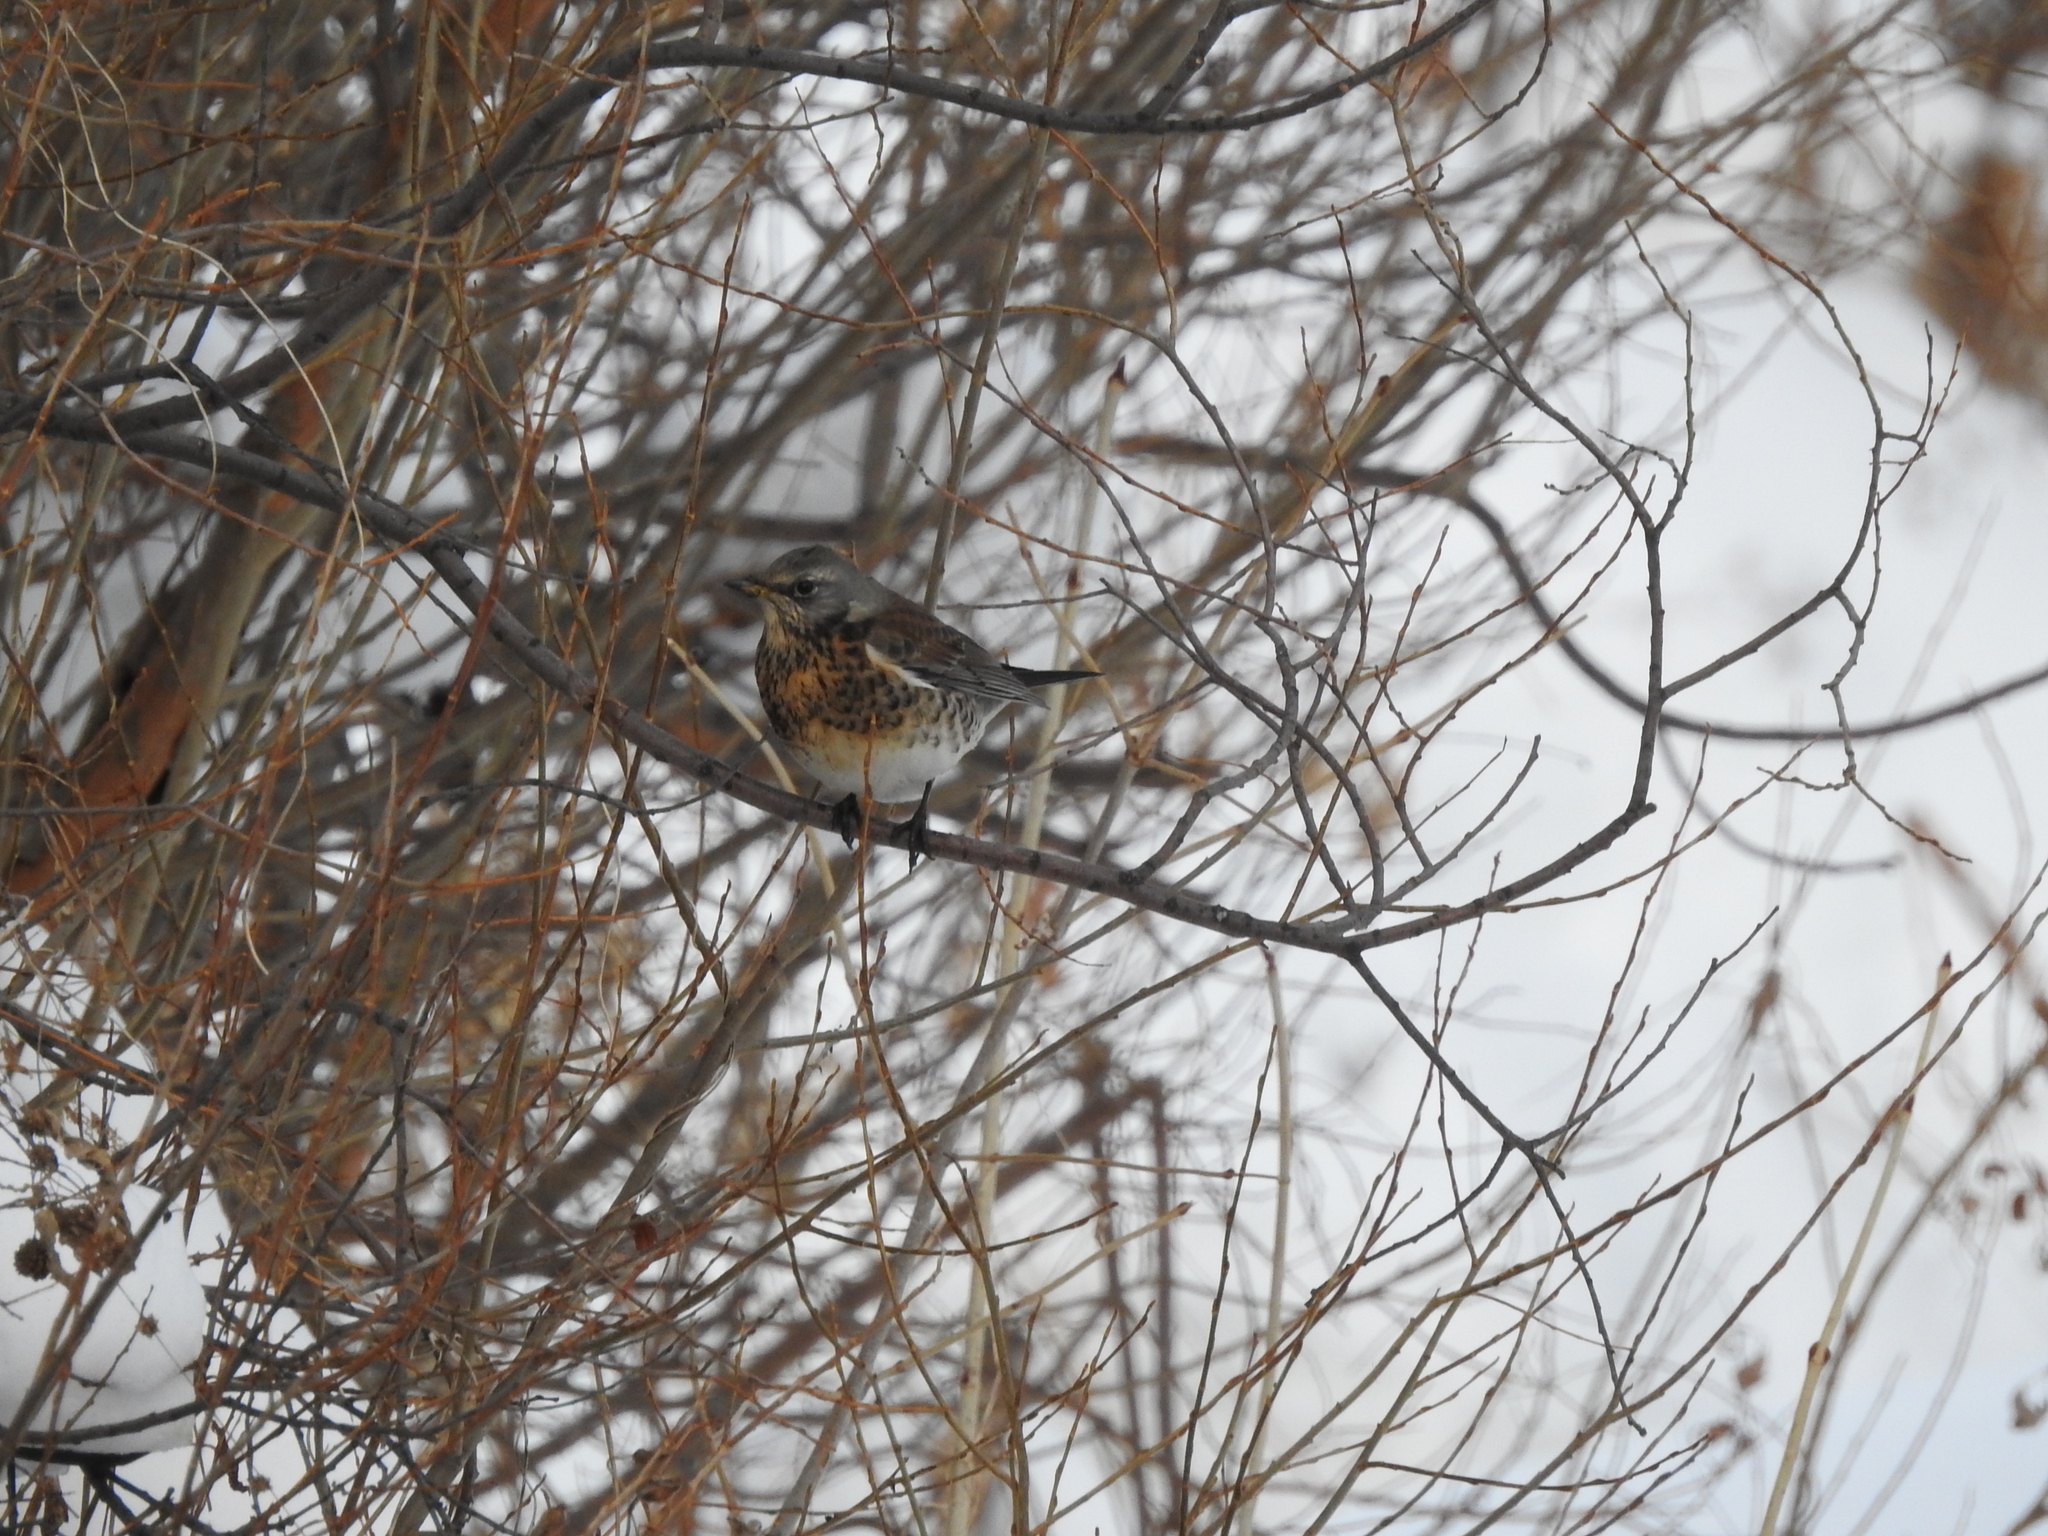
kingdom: Animalia
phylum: Chordata
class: Aves
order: Passeriformes
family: Turdidae
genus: Turdus
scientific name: Turdus pilaris
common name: Fieldfare
